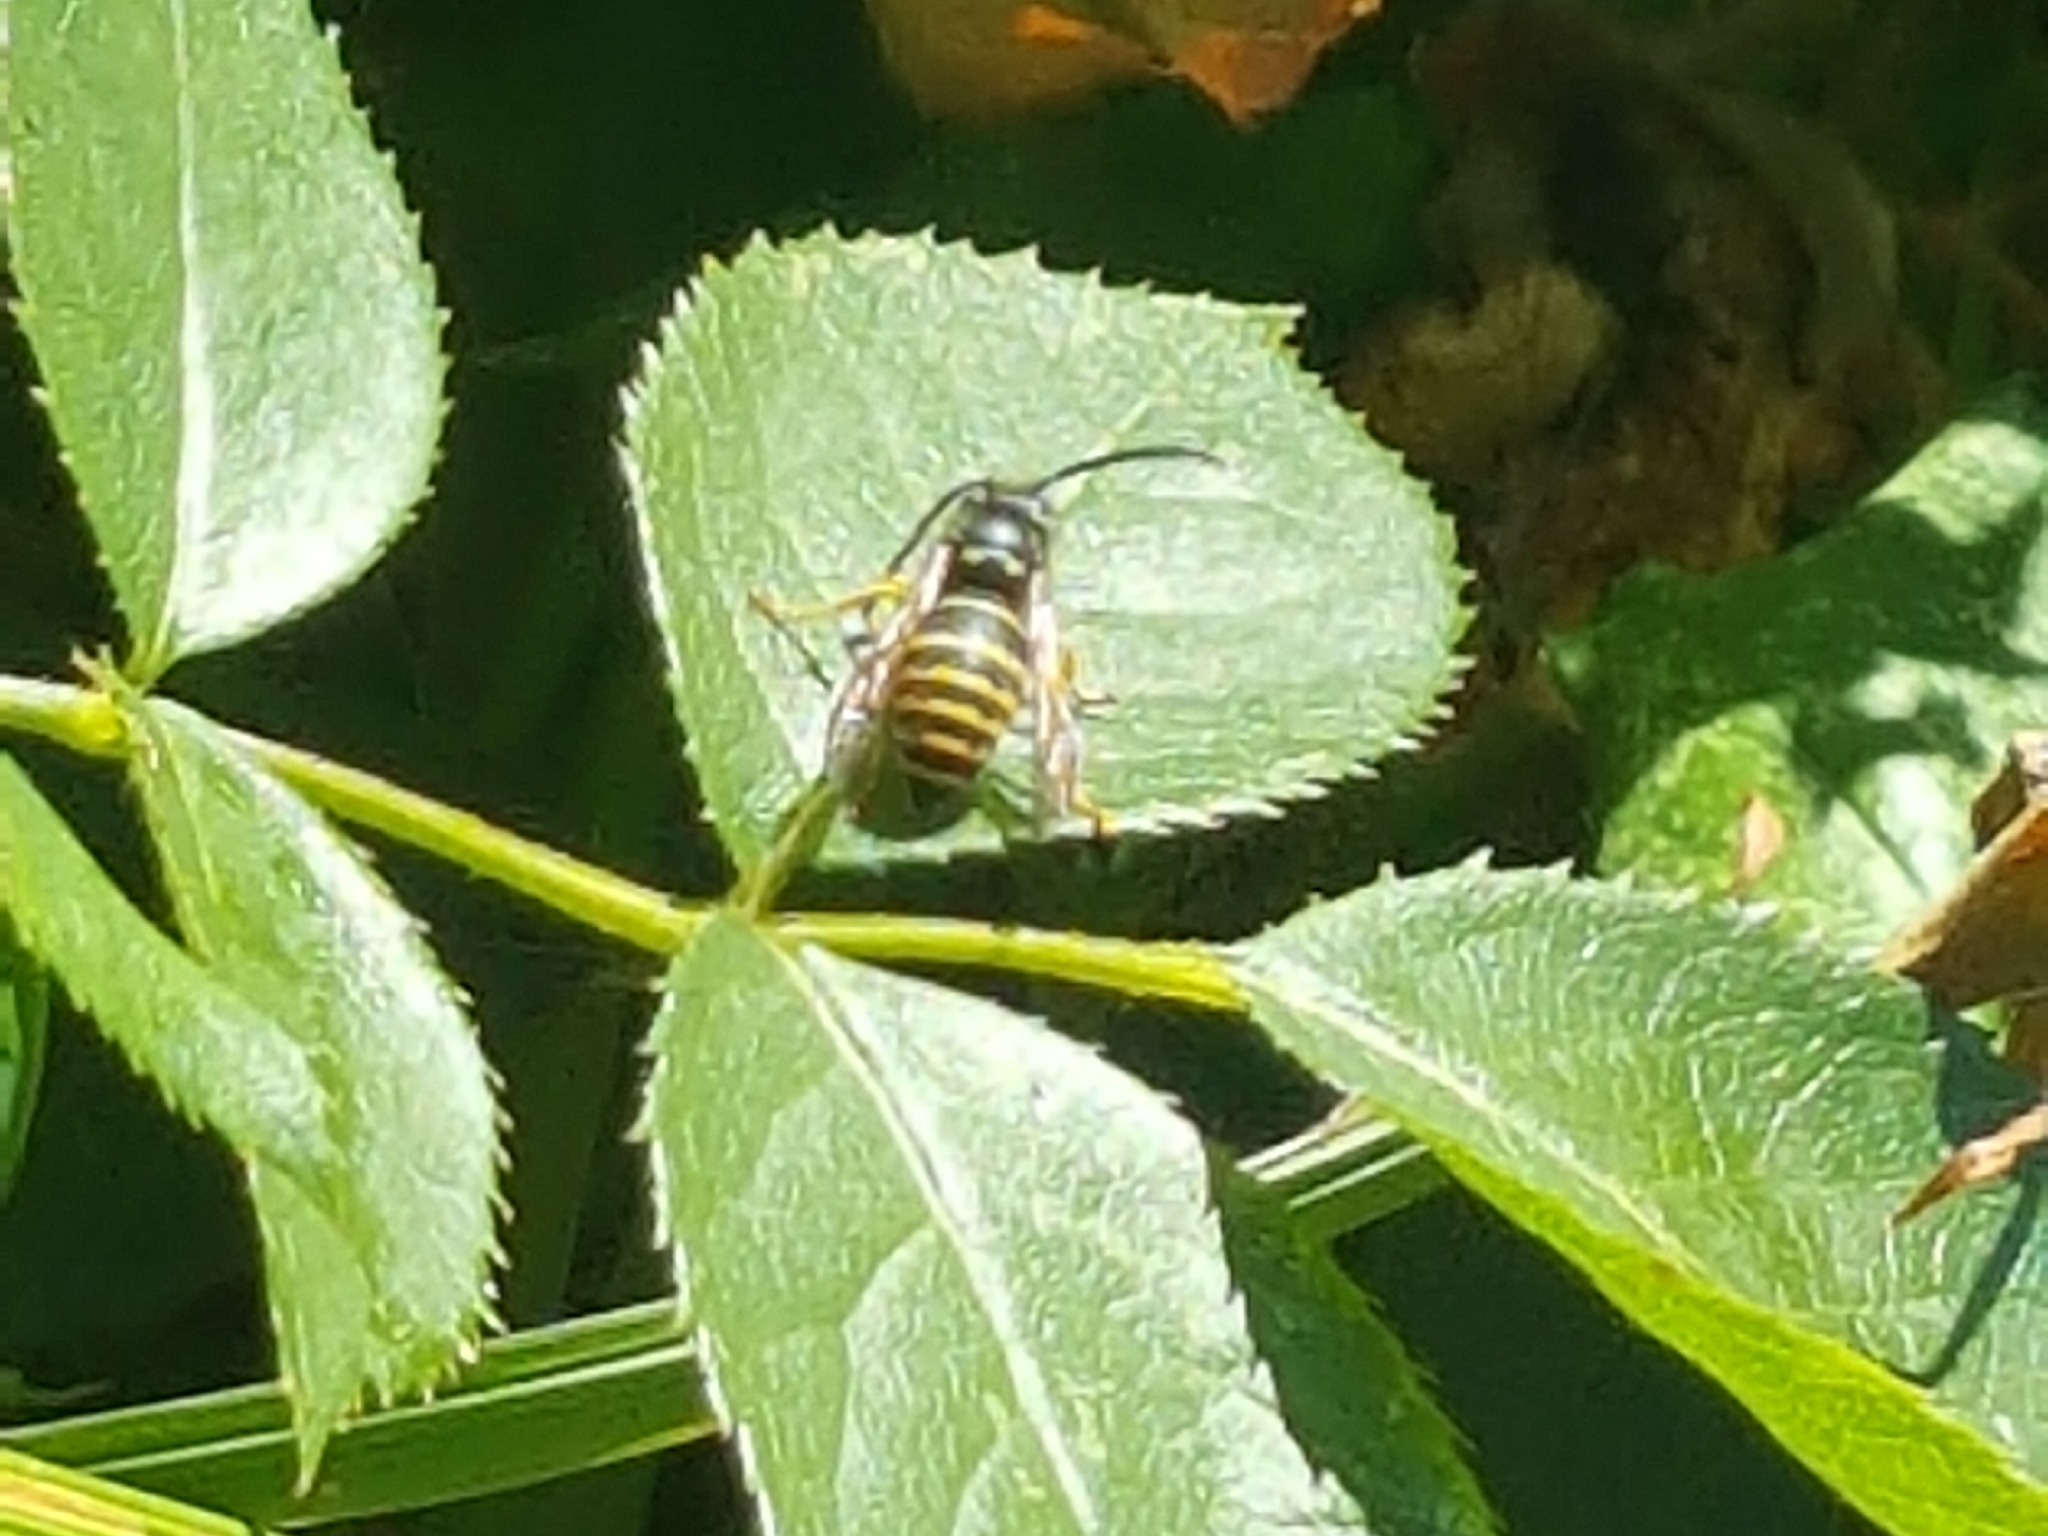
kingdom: Animalia
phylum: Arthropoda
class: Insecta
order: Hymenoptera
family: Vespidae
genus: Vespula
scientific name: Vespula alascensis
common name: Alaska yellowjacket
